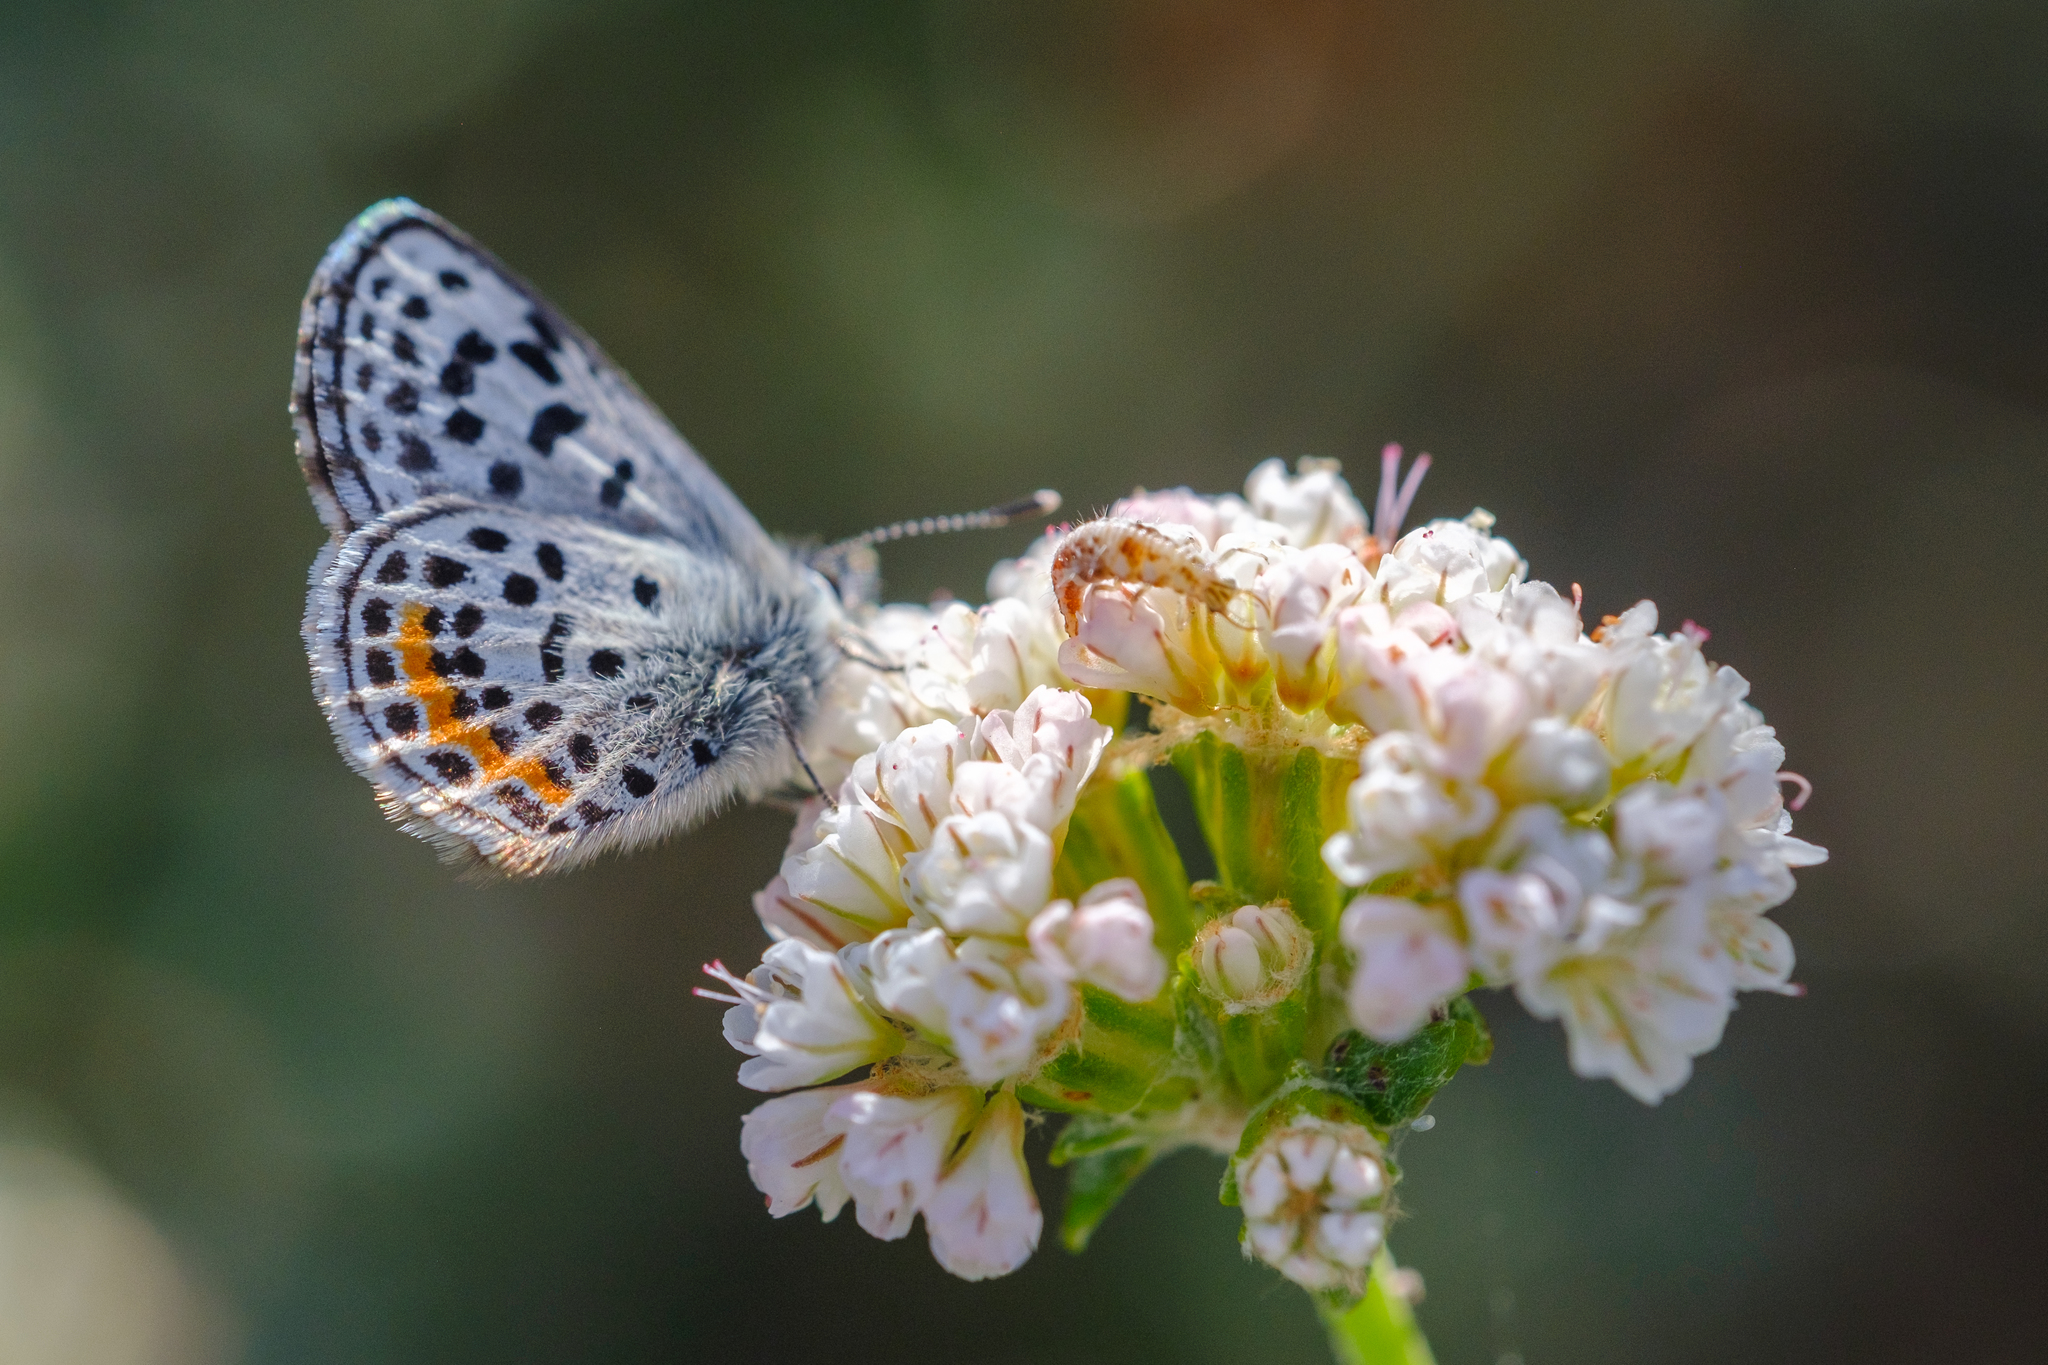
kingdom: Animalia
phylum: Arthropoda
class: Insecta
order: Lepidoptera
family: Lycaenidae
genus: Euphilotes
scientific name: Euphilotes battoides
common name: Square-spotted blue
